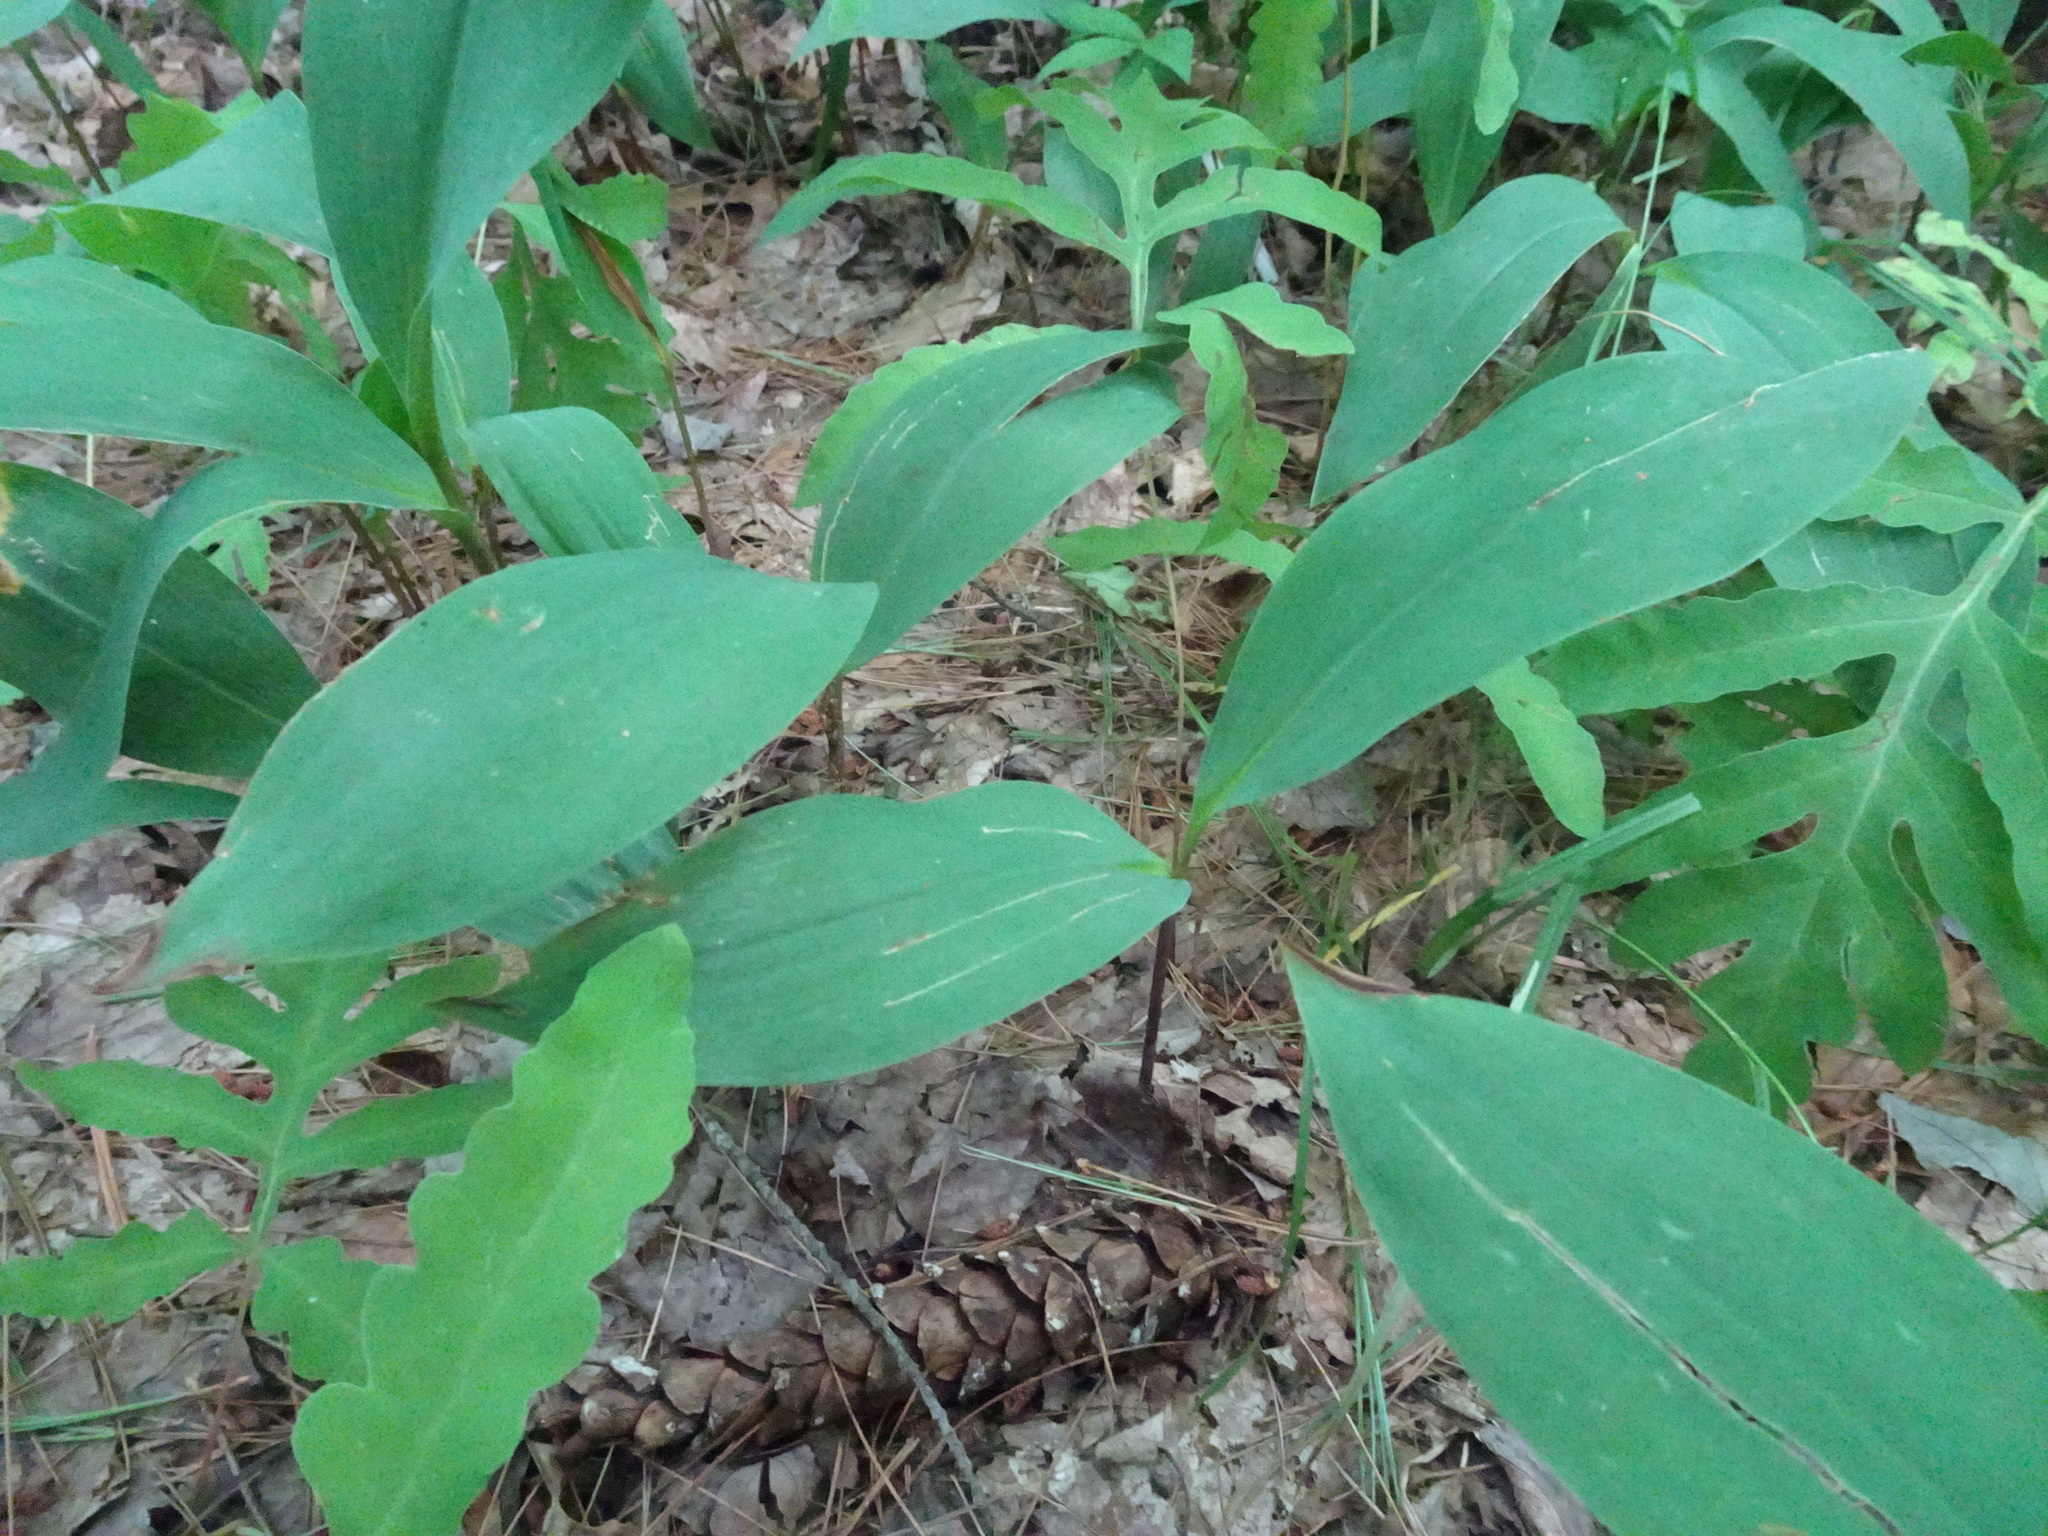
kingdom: Plantae
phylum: Tracheophyta
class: Liliopsida
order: Asparagales
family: Asparagaceae
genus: Convallaria
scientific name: Convallaria majalis
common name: Lily-of-the-valley
